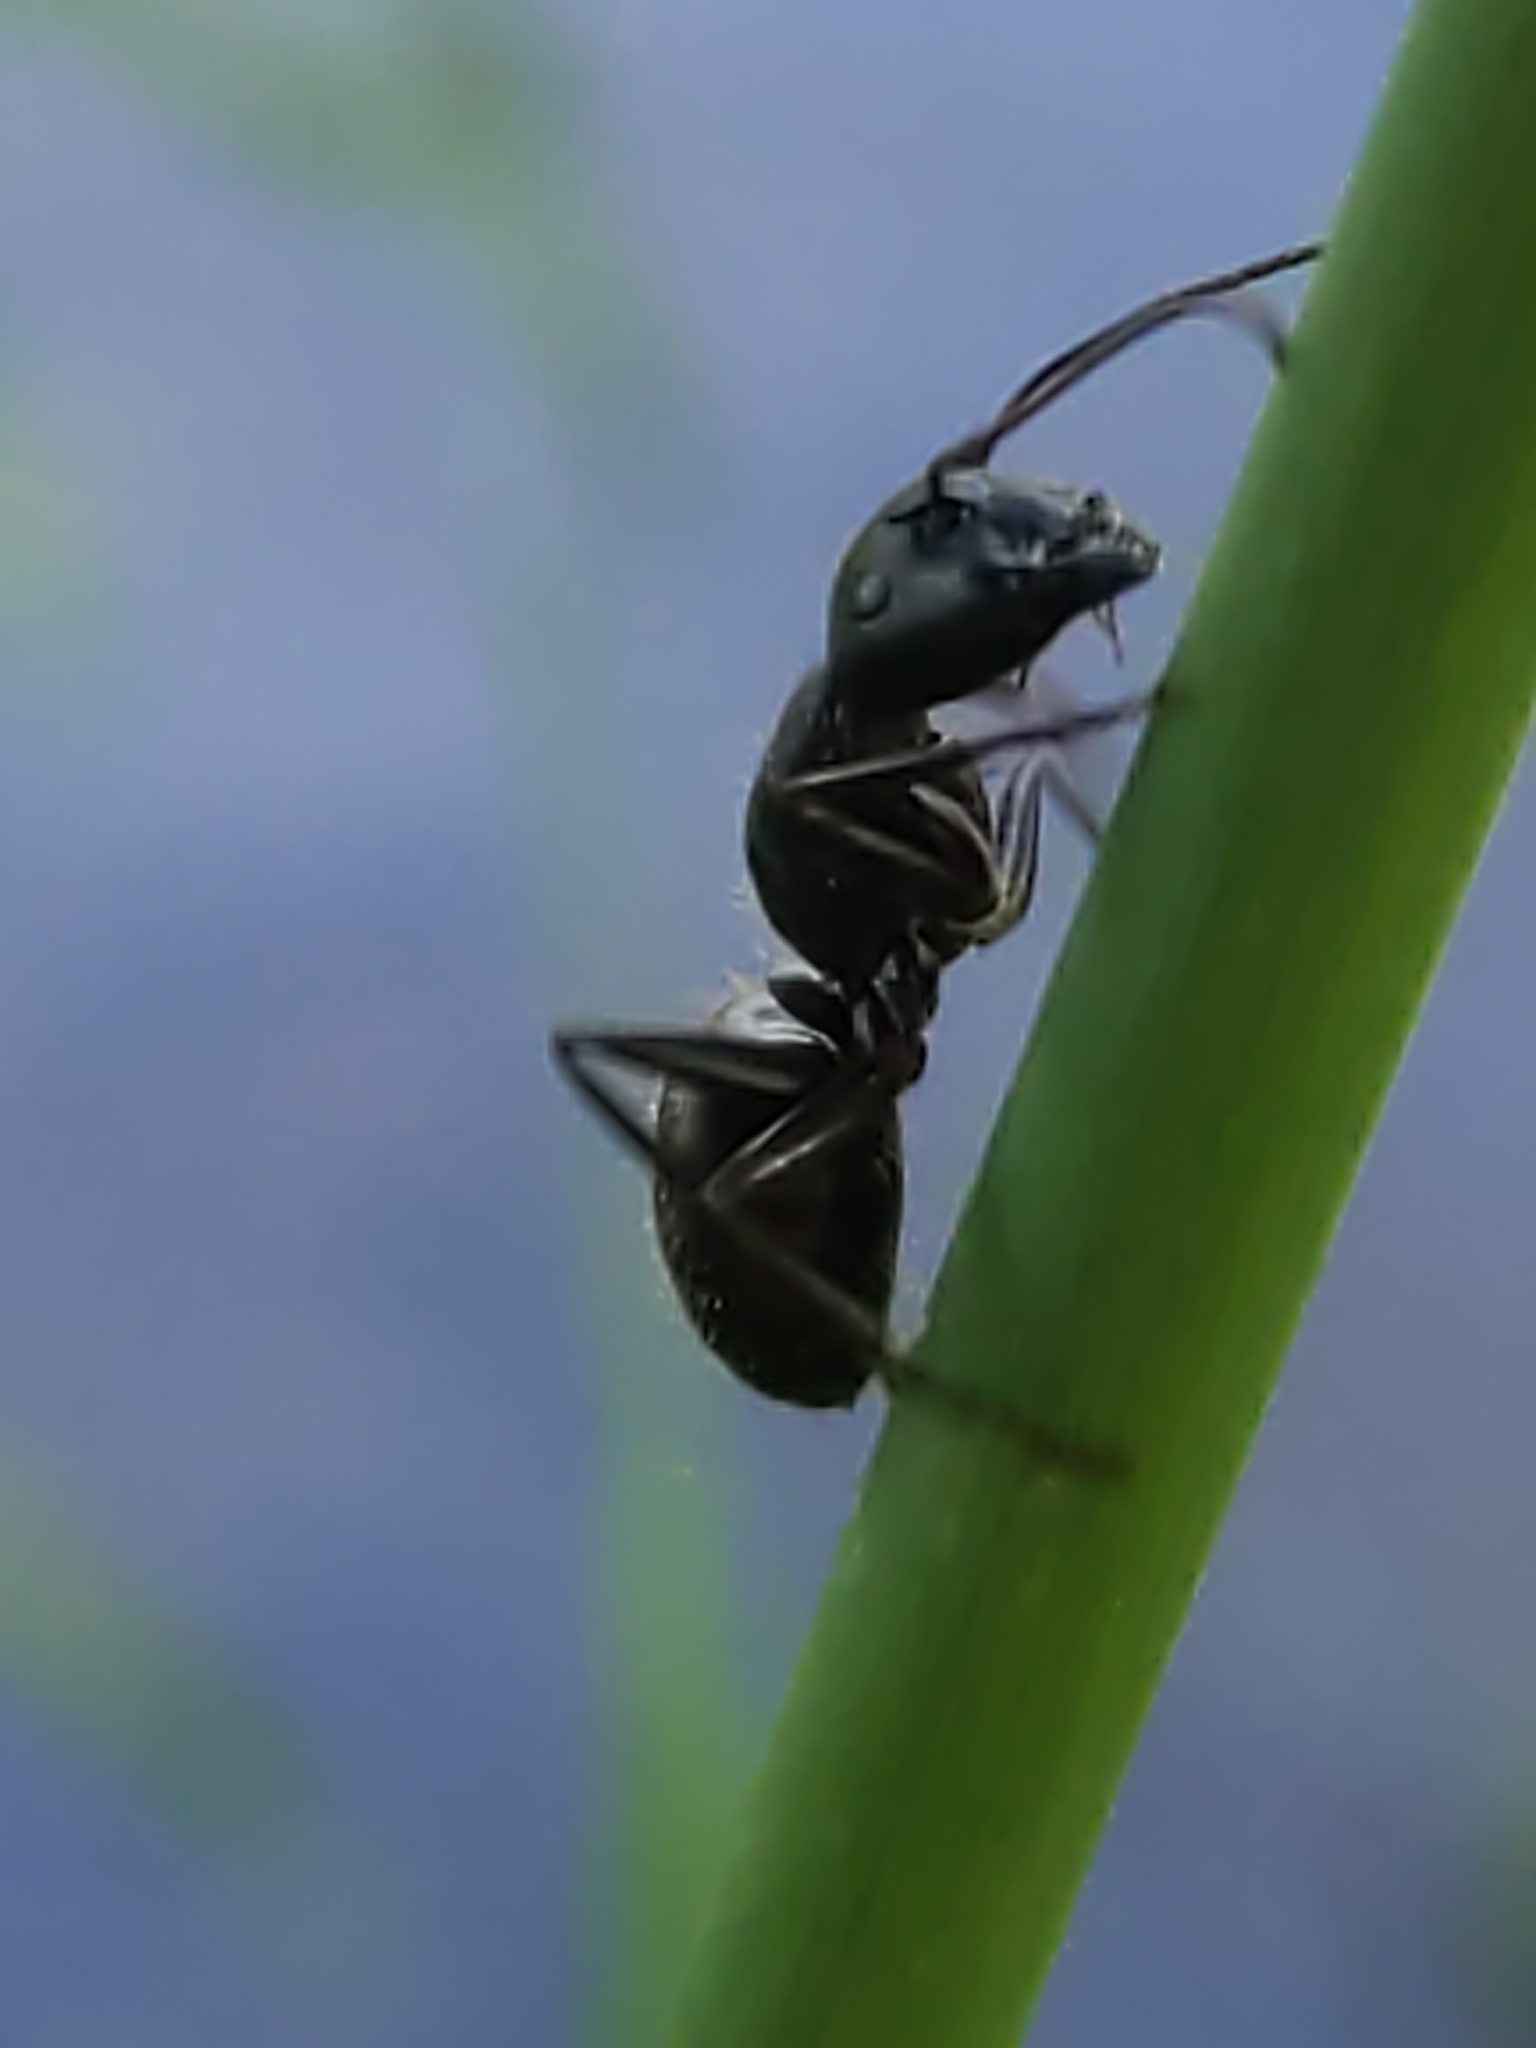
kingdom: Animalia
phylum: Arthropoda
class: Insecta
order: Hymenoptera
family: Formicidae
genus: Camponotus
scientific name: Camponotus pennsylvanicus
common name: Black carpenter ant
